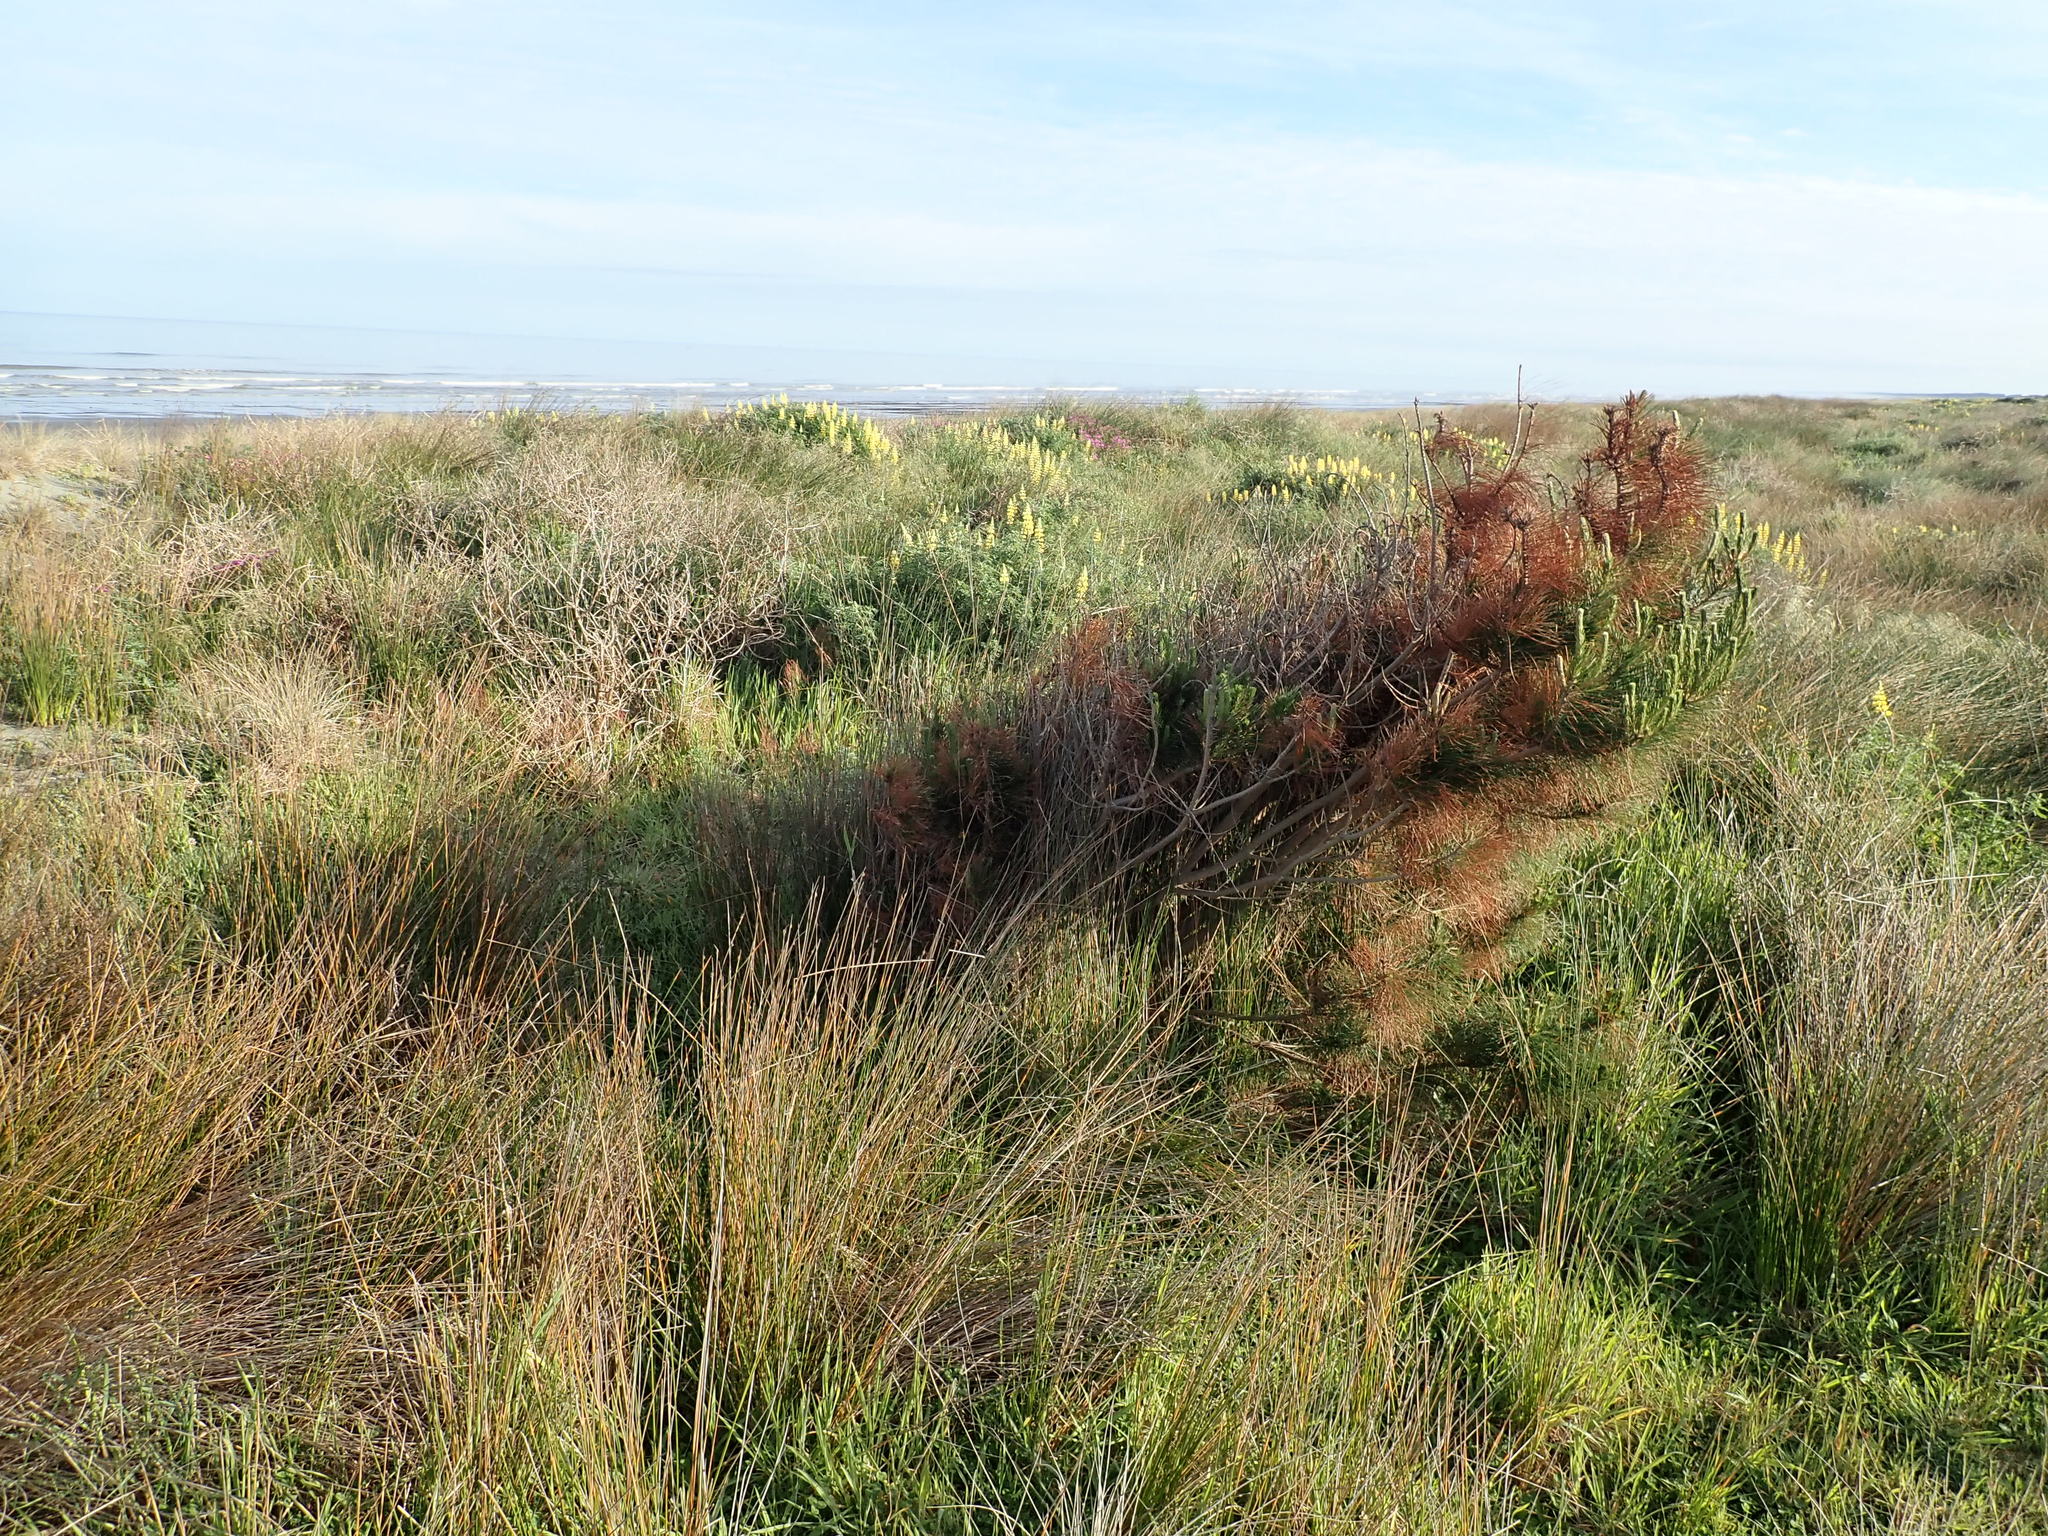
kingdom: Plantae
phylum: Tracheophyta
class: Pinopsida
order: Pinales
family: Pinaceae
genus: Pinus
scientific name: Pinus radiata
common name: Monterey pine
